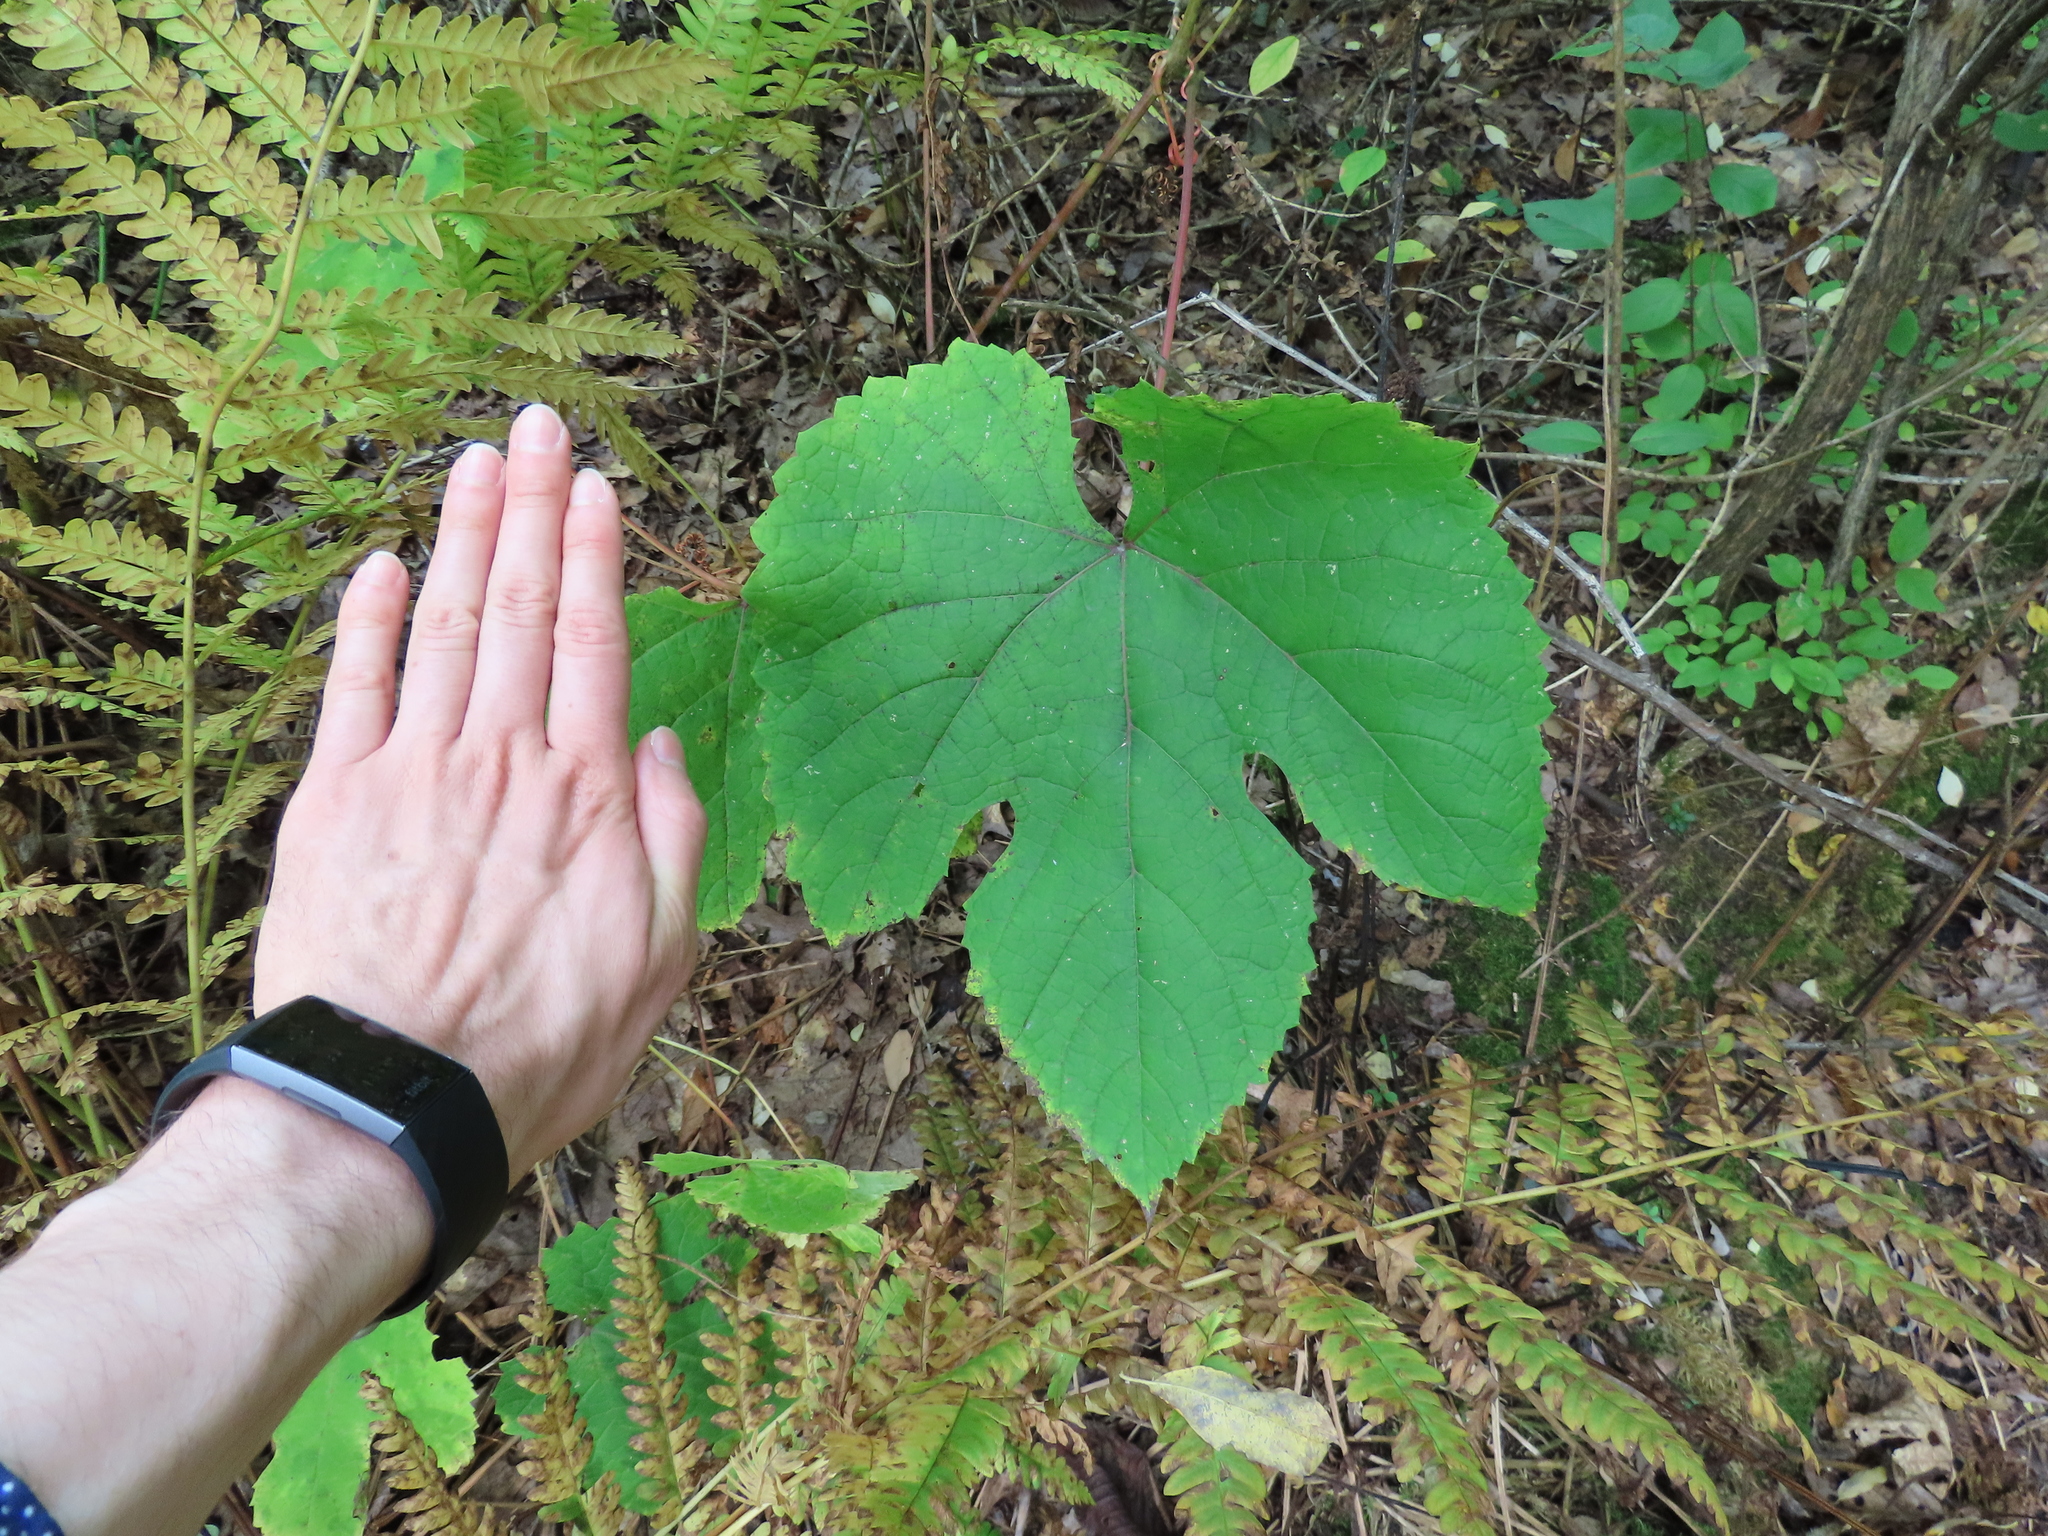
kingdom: Plantae
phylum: Tracheophyta
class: Magnoliopsida
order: Vitales
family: Vitaceae
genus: Vitis
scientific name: Vitis aestivalis
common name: Pigeon grape
